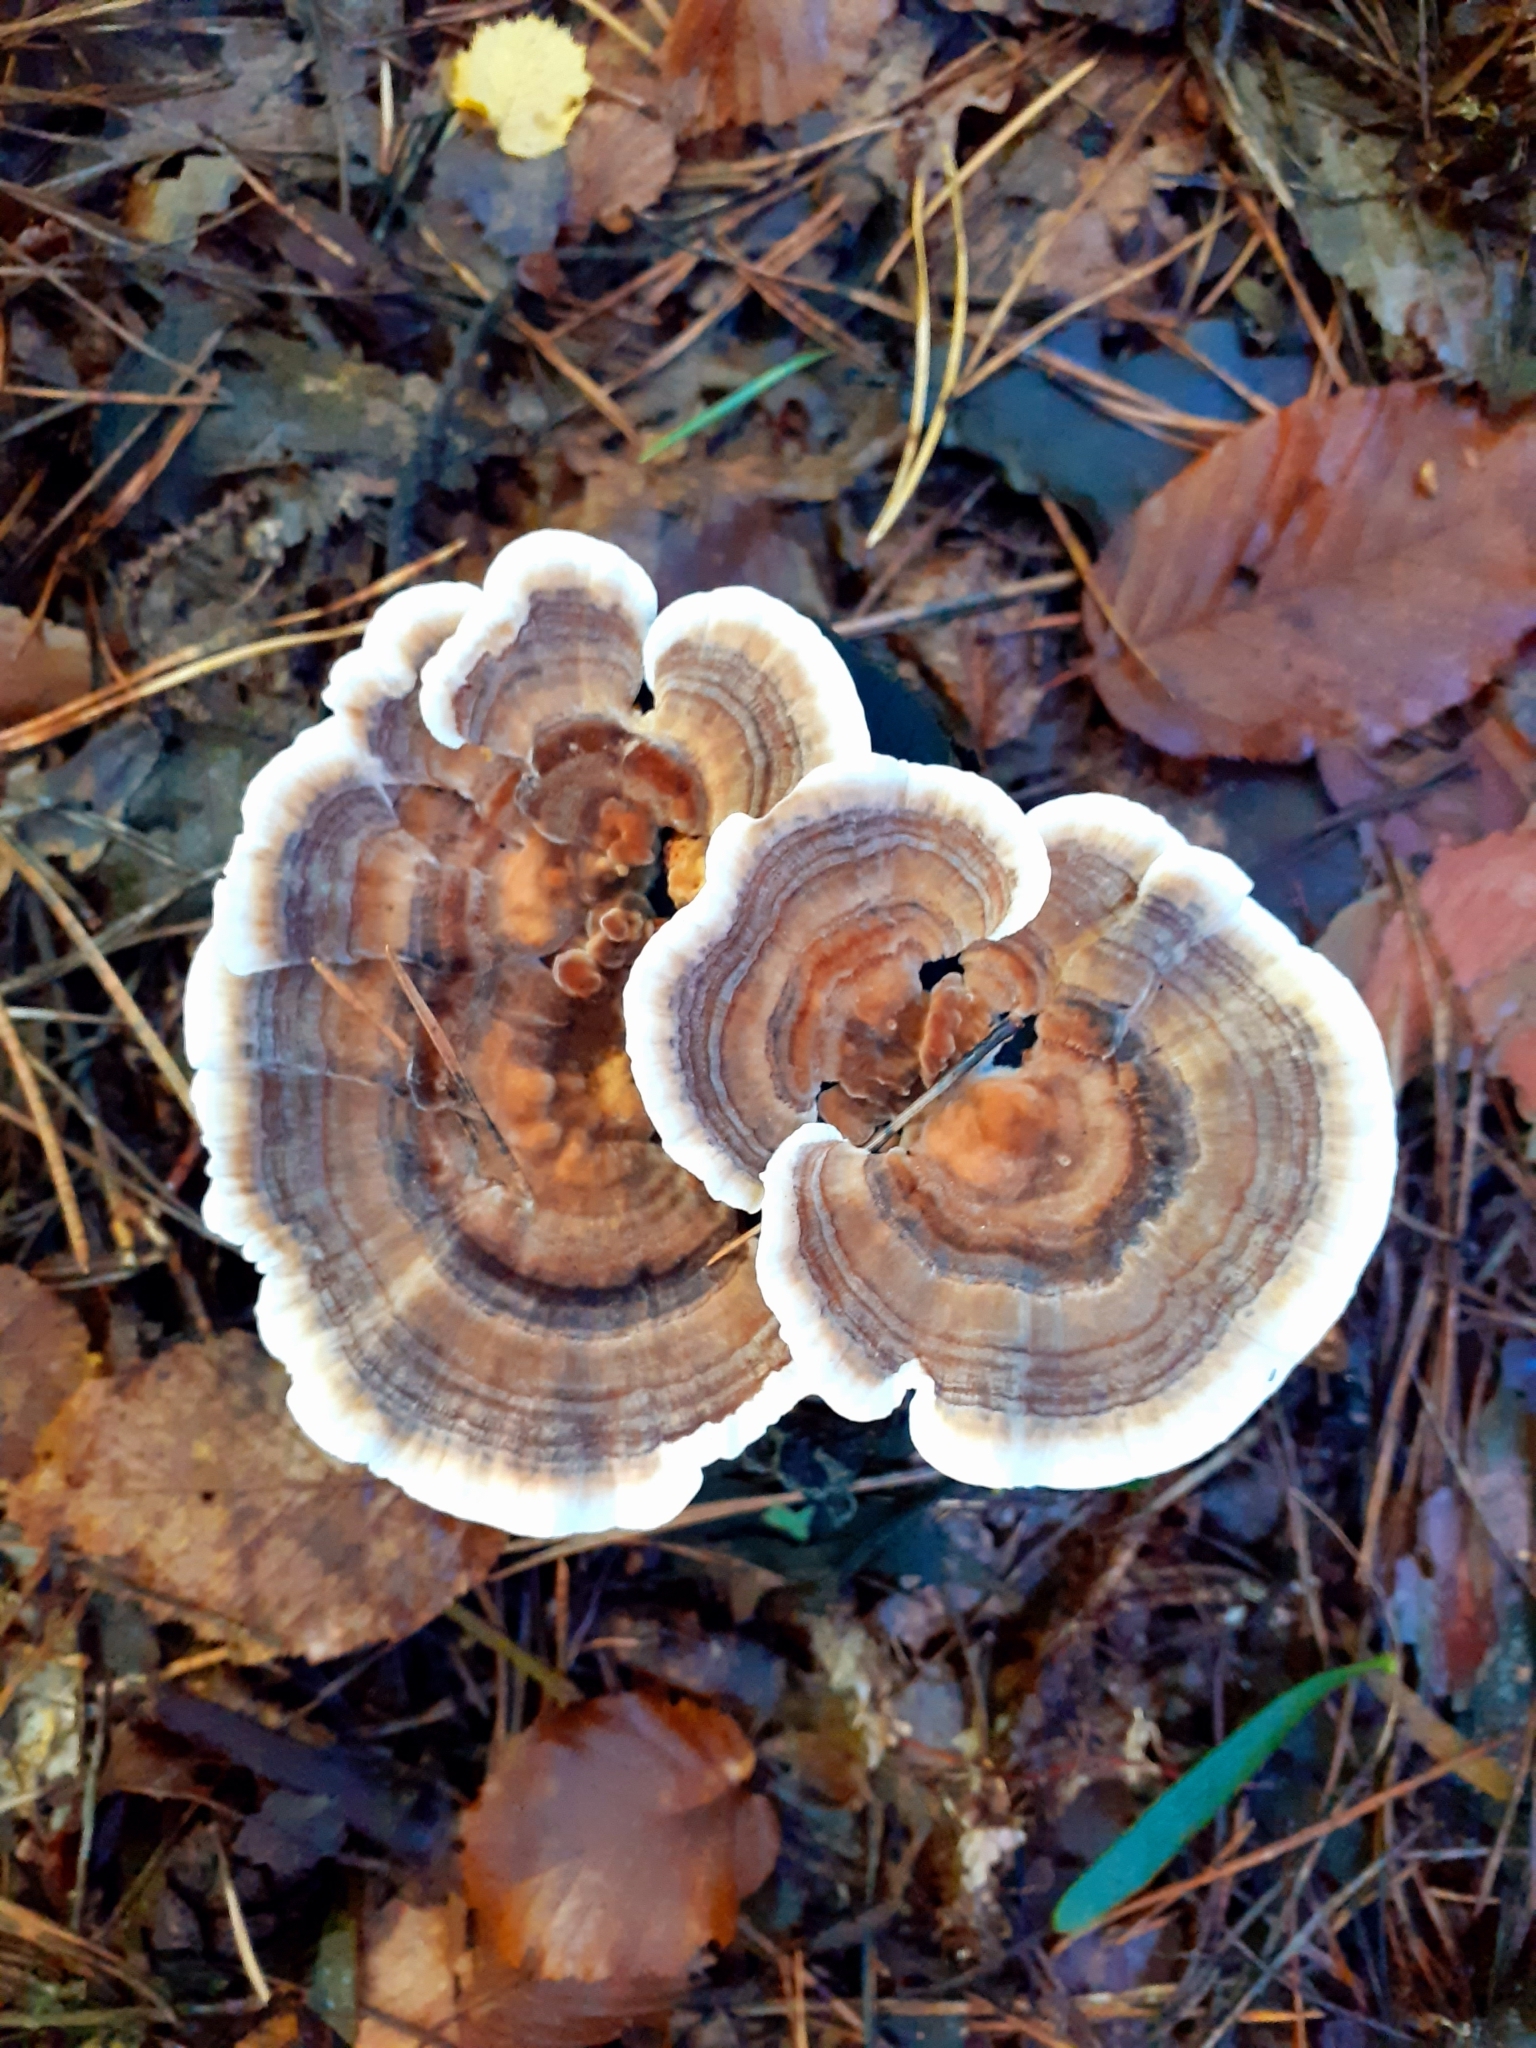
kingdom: Fungi
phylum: Basidiomycota
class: Agaricomycetes
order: Polyporales
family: Polyporaceae
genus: Trametes
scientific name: Trametes versicolor
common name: Turkeytail
